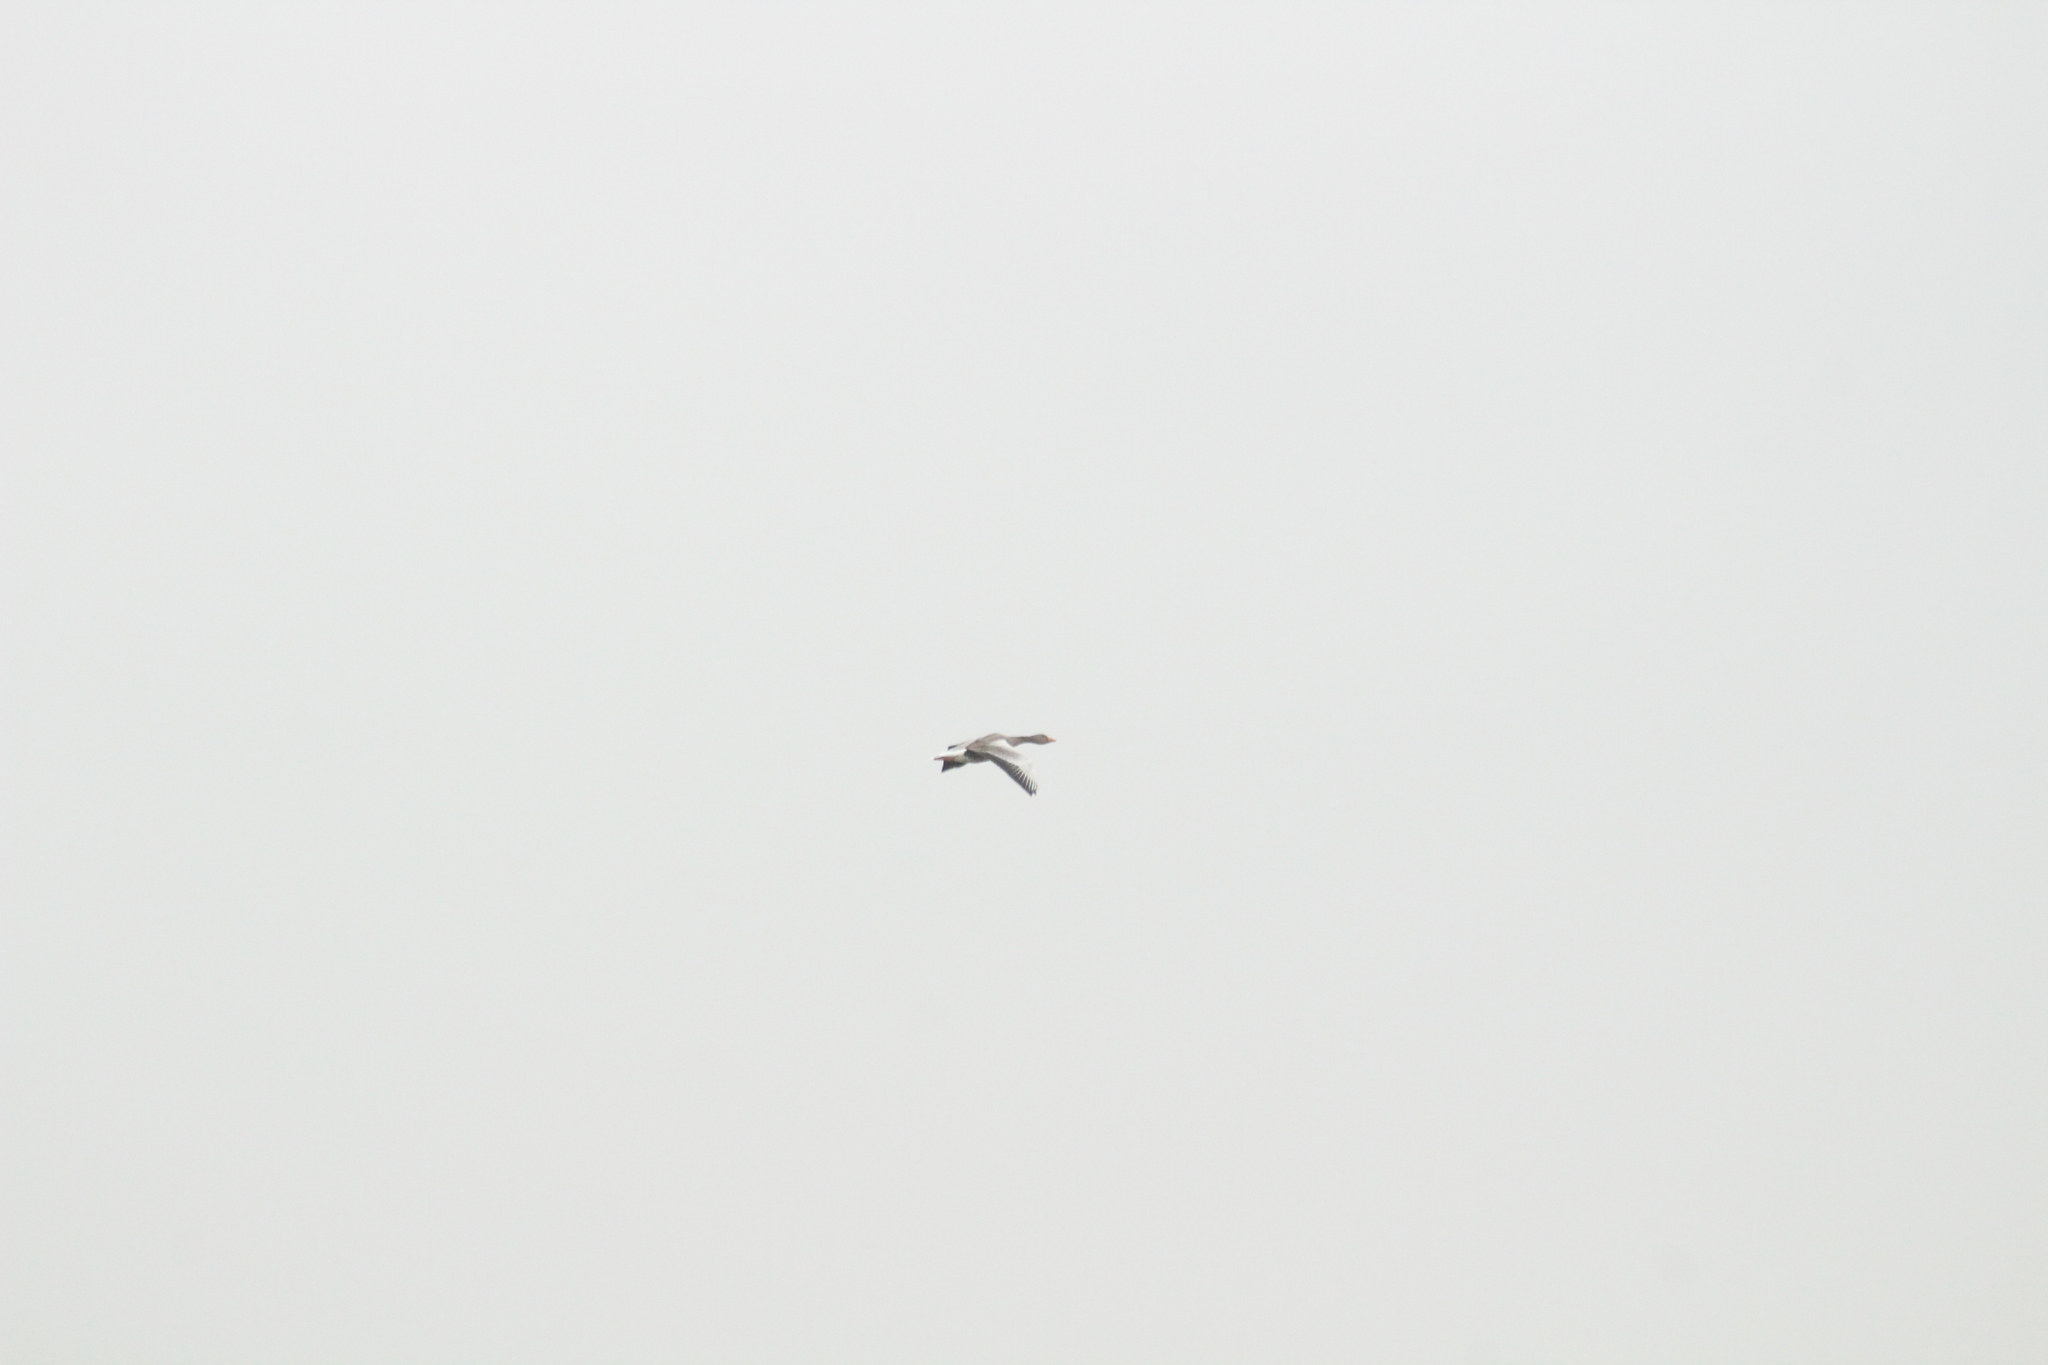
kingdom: Animalia
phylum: Chordata
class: Aves
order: Anseriformes
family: Anatidae
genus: Anser
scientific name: Anser anser
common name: Greylag goose
